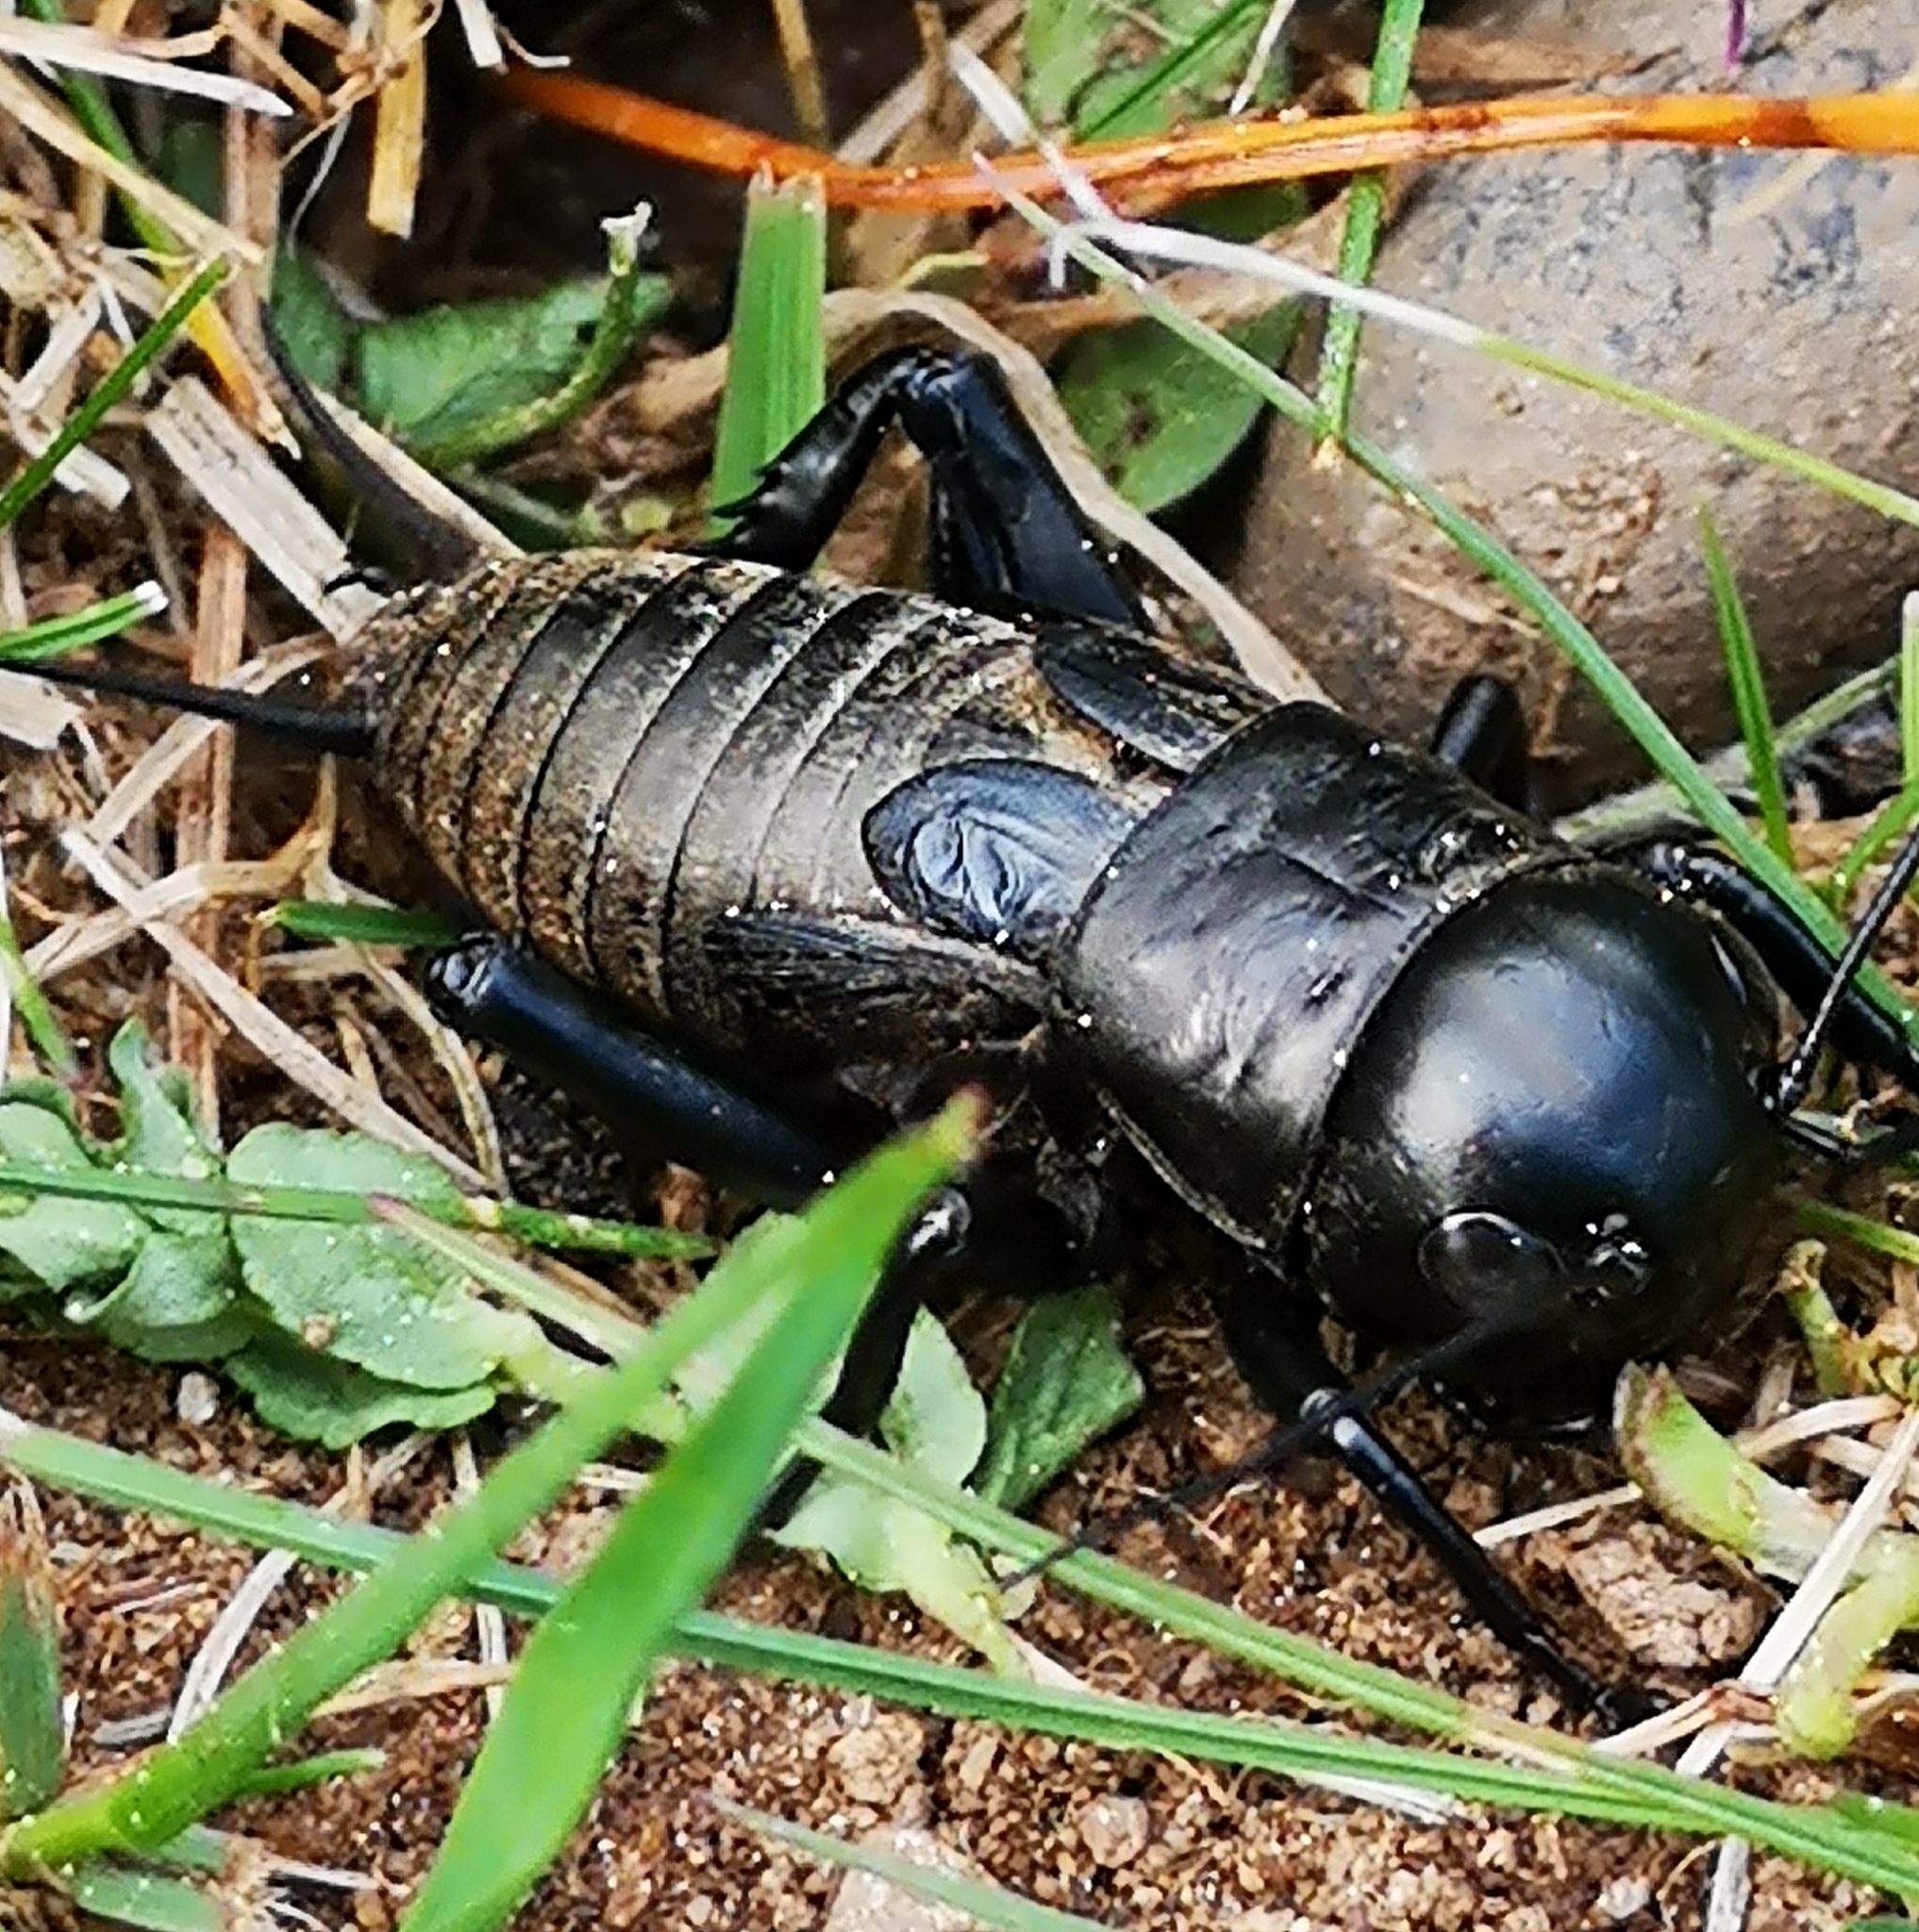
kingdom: Animalia
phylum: Arthropoda
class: Insecta
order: Orthoptera
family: Gryllidae
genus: Gryllus
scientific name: Gryllus campestris
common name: Field cricket
